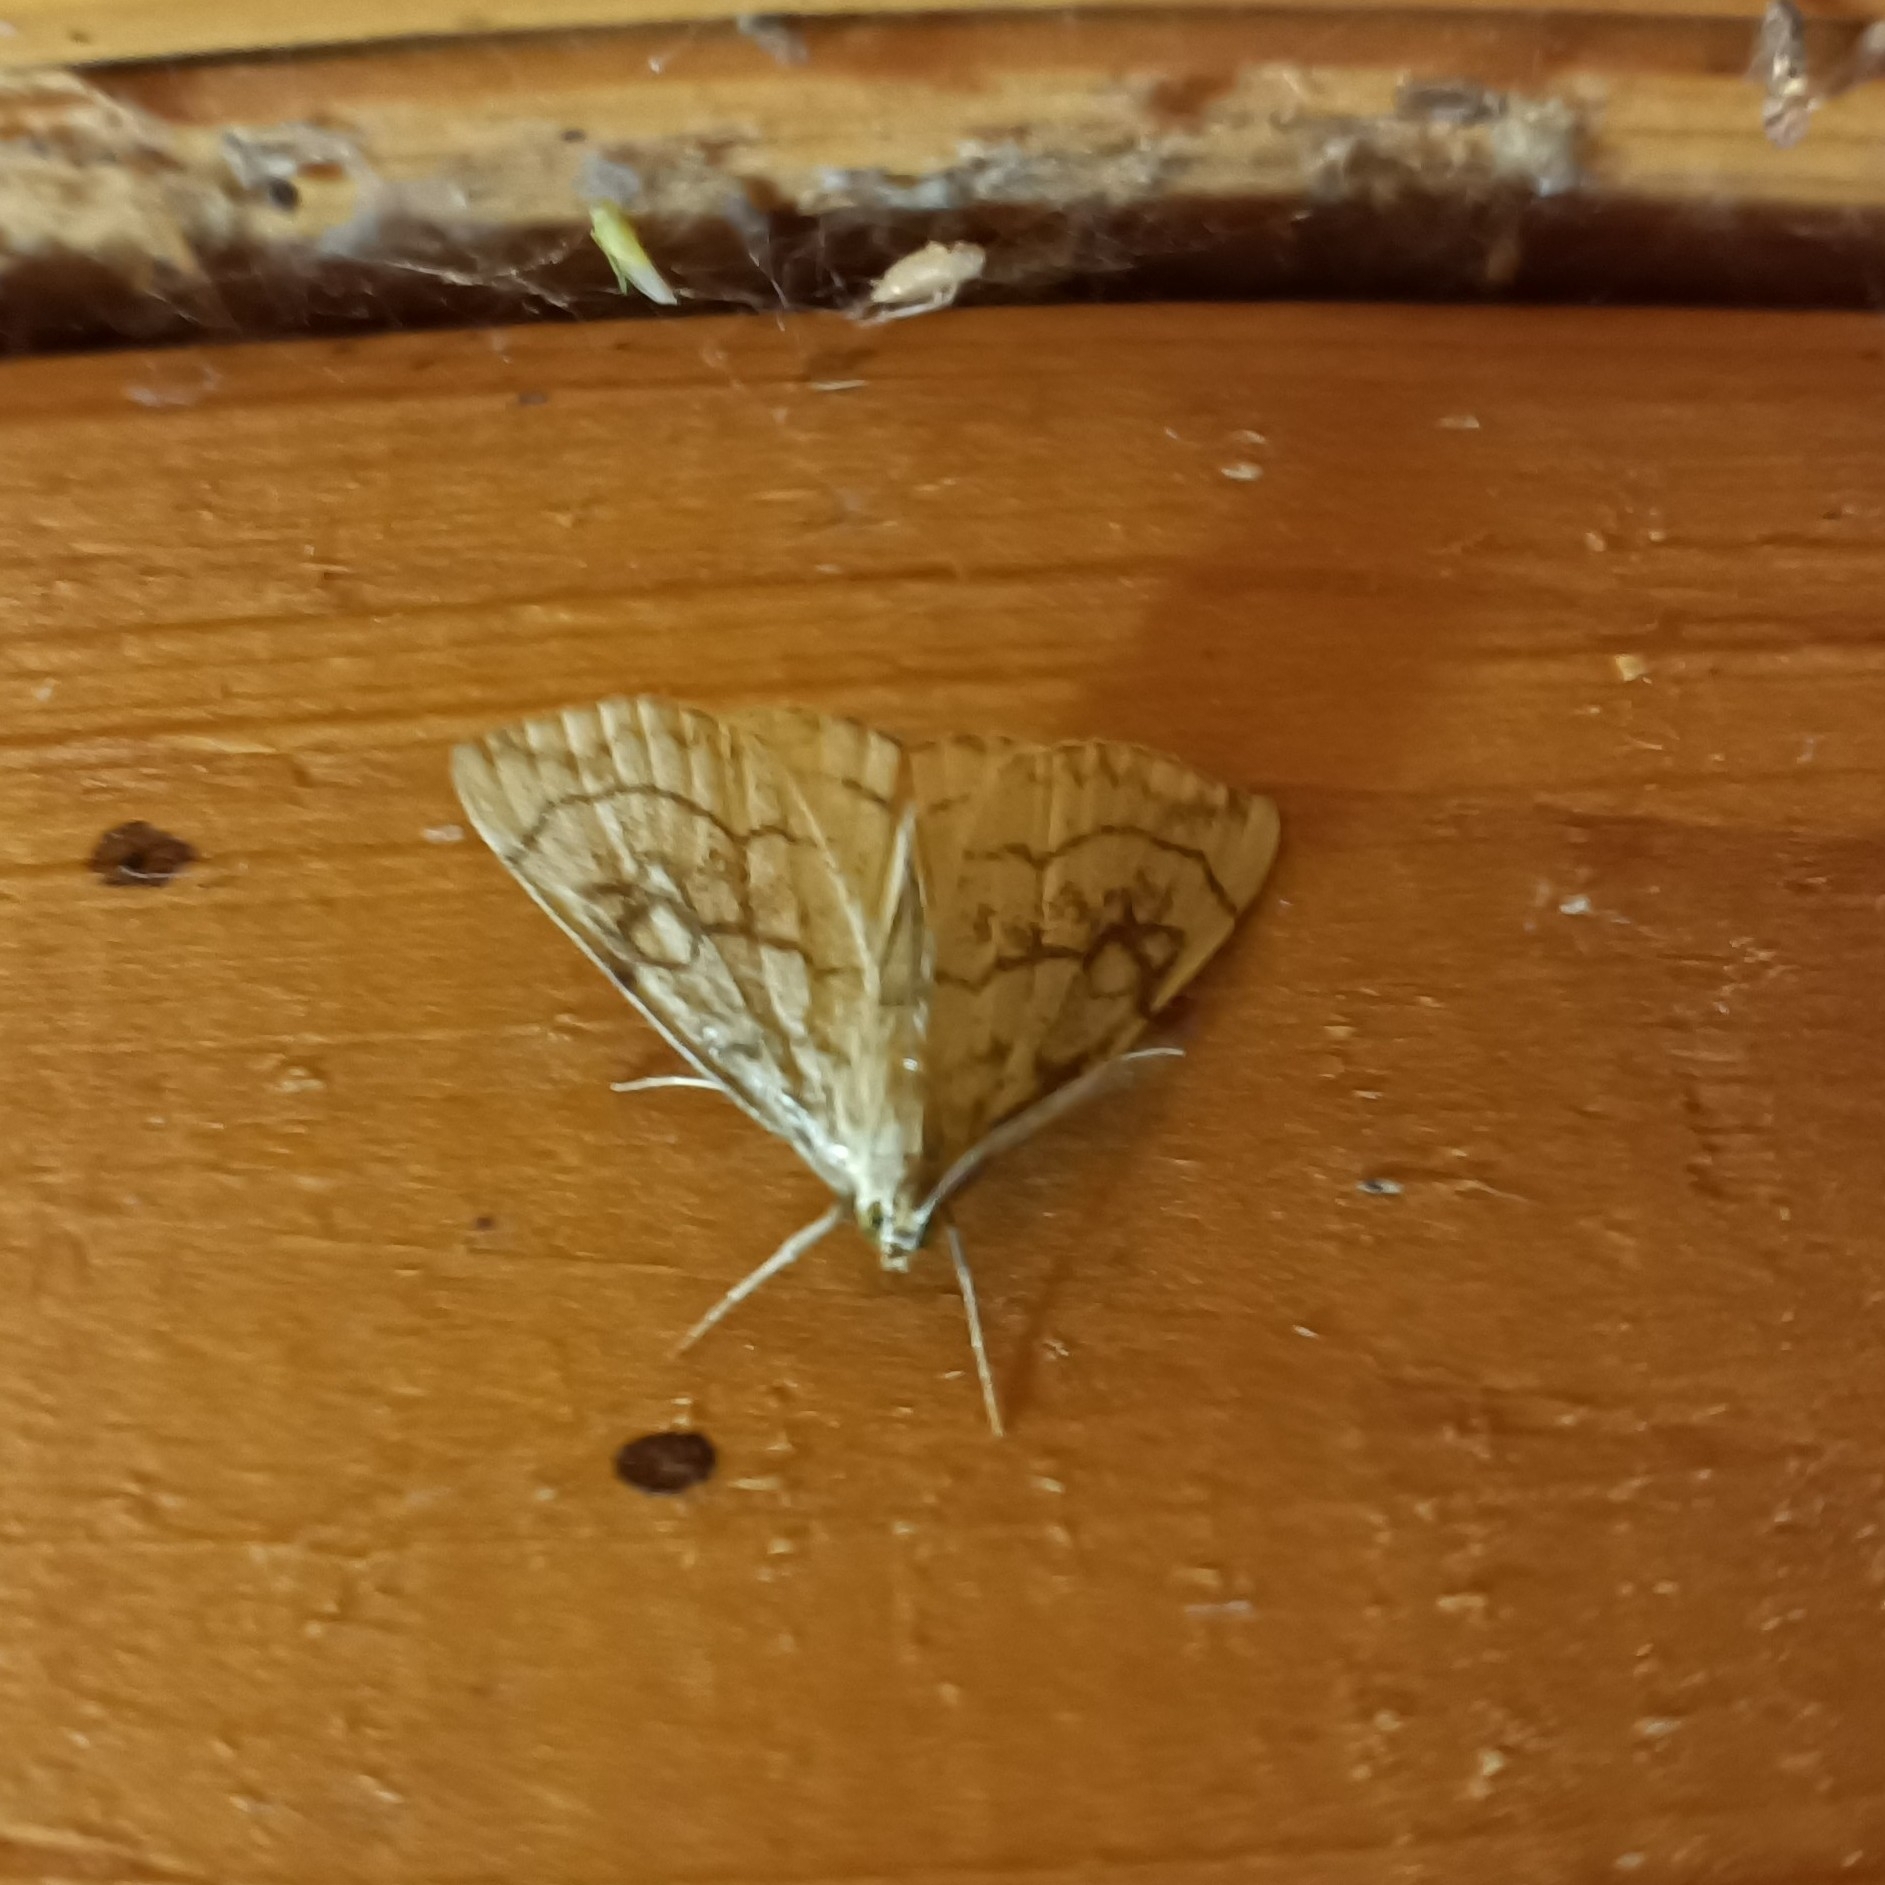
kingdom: Animalia
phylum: Arthropoda
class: Insecta
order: Lepidoptera
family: Crambidae
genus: Evergestis
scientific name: Evergestis pallidata
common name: Chequered pearl
